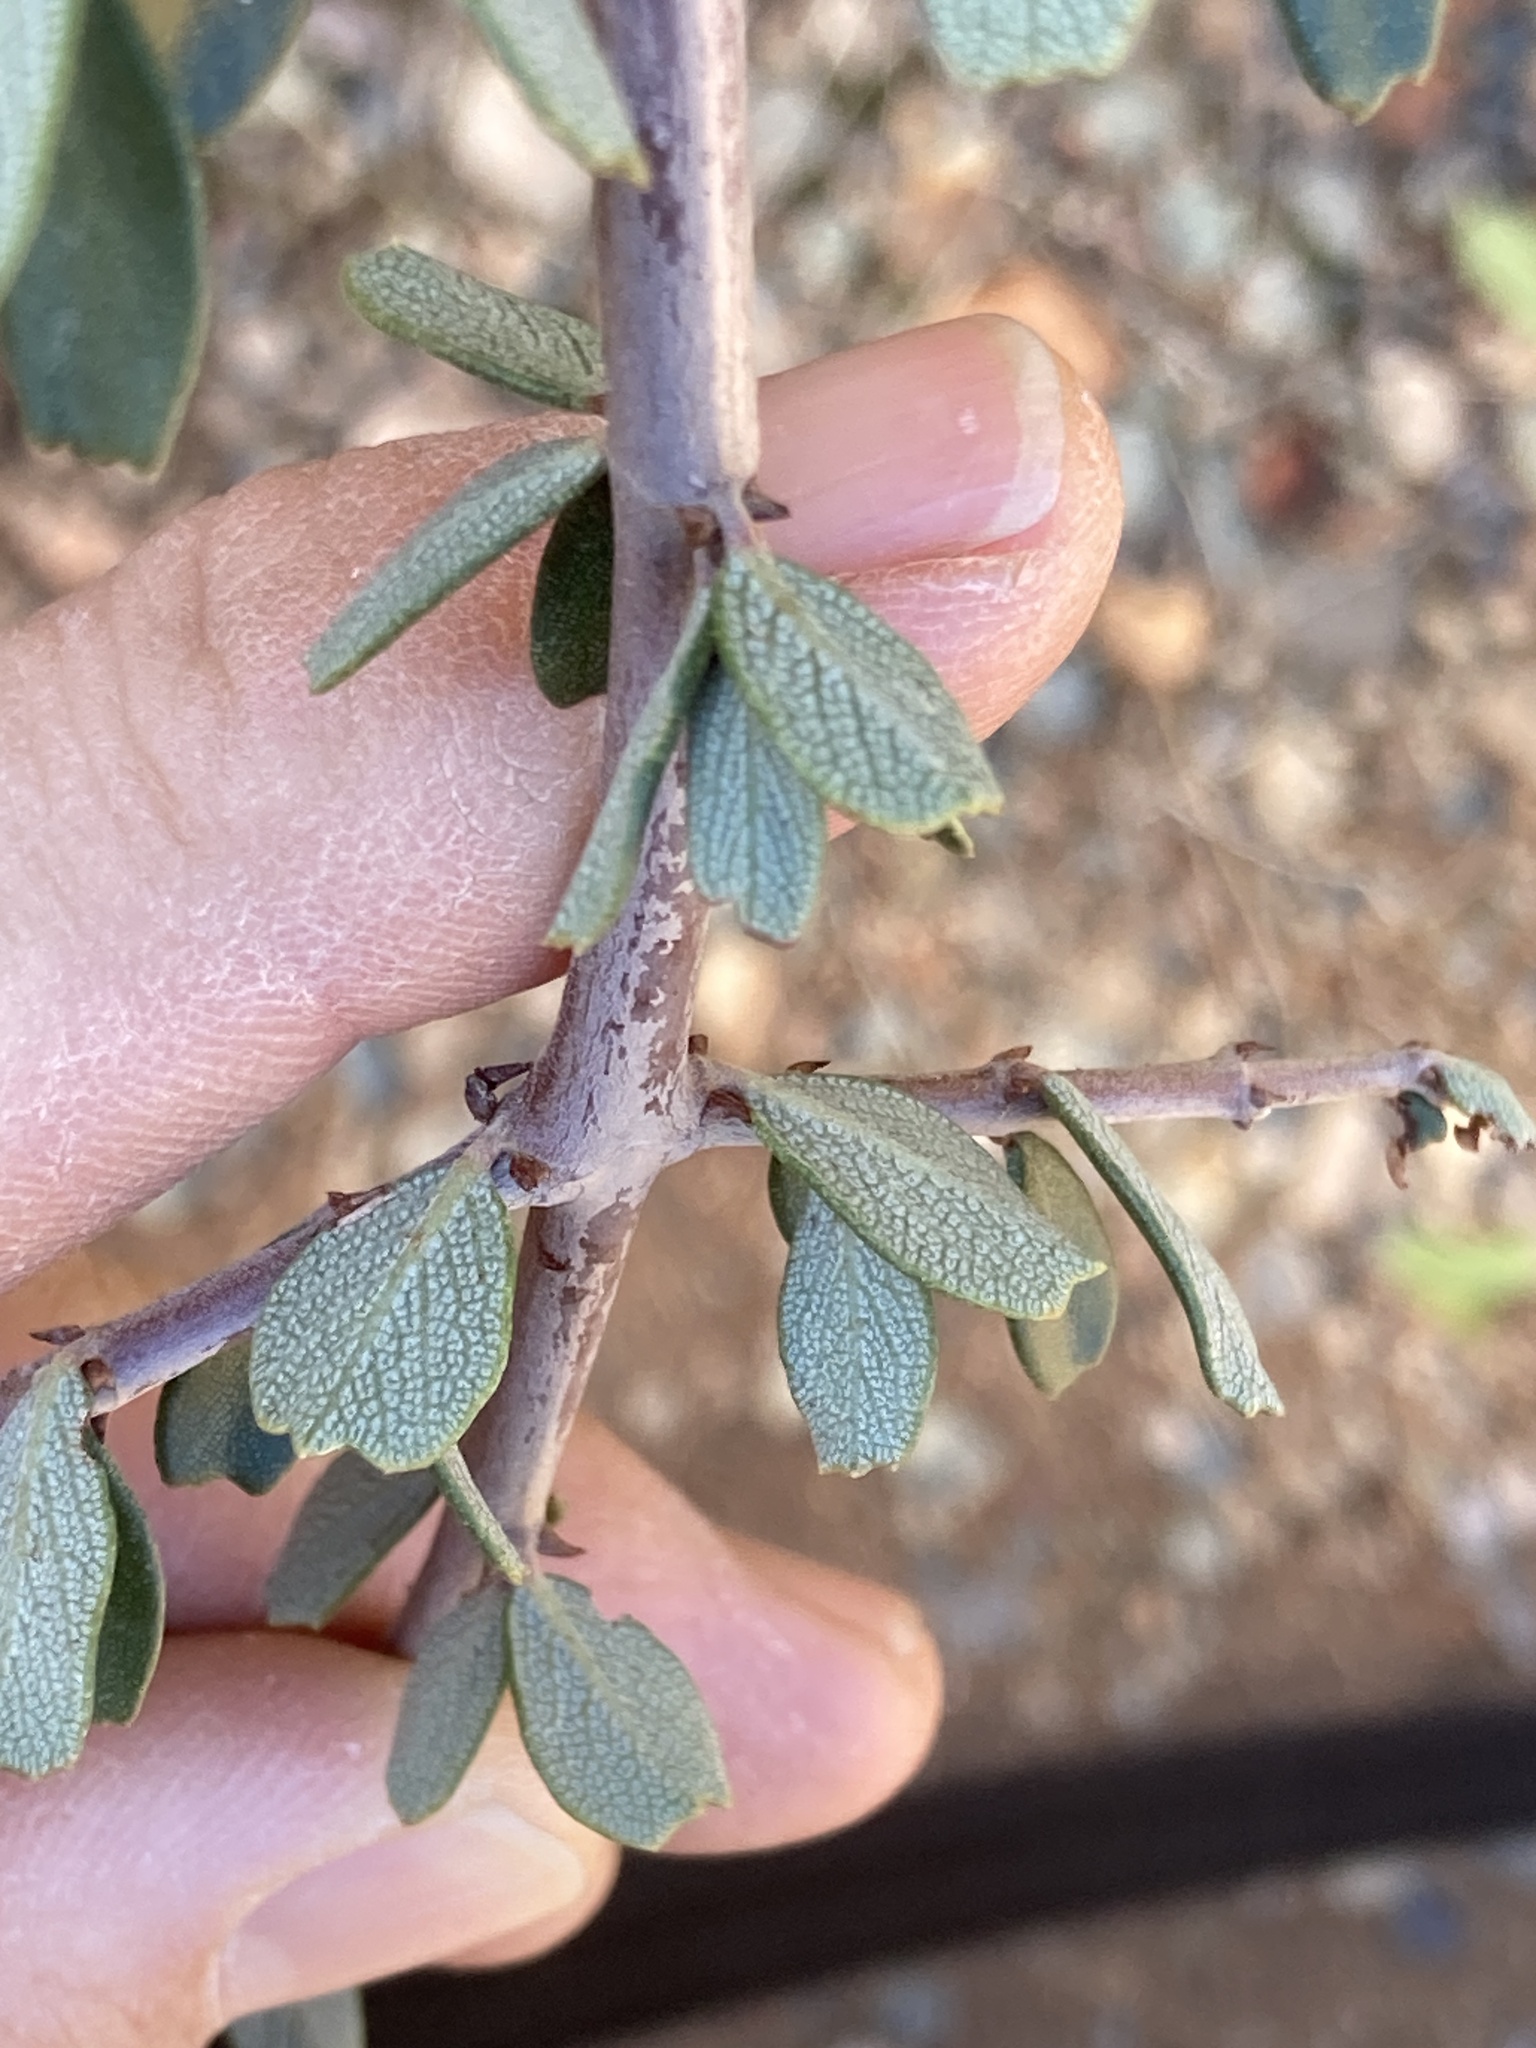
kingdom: Plantae
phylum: Tracheophyta
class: Magnoliopsida
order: Rosales
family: Rhamnaceae
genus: Ceanothus
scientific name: Ceanothus cuneatus
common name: Cuneate ceanothus
